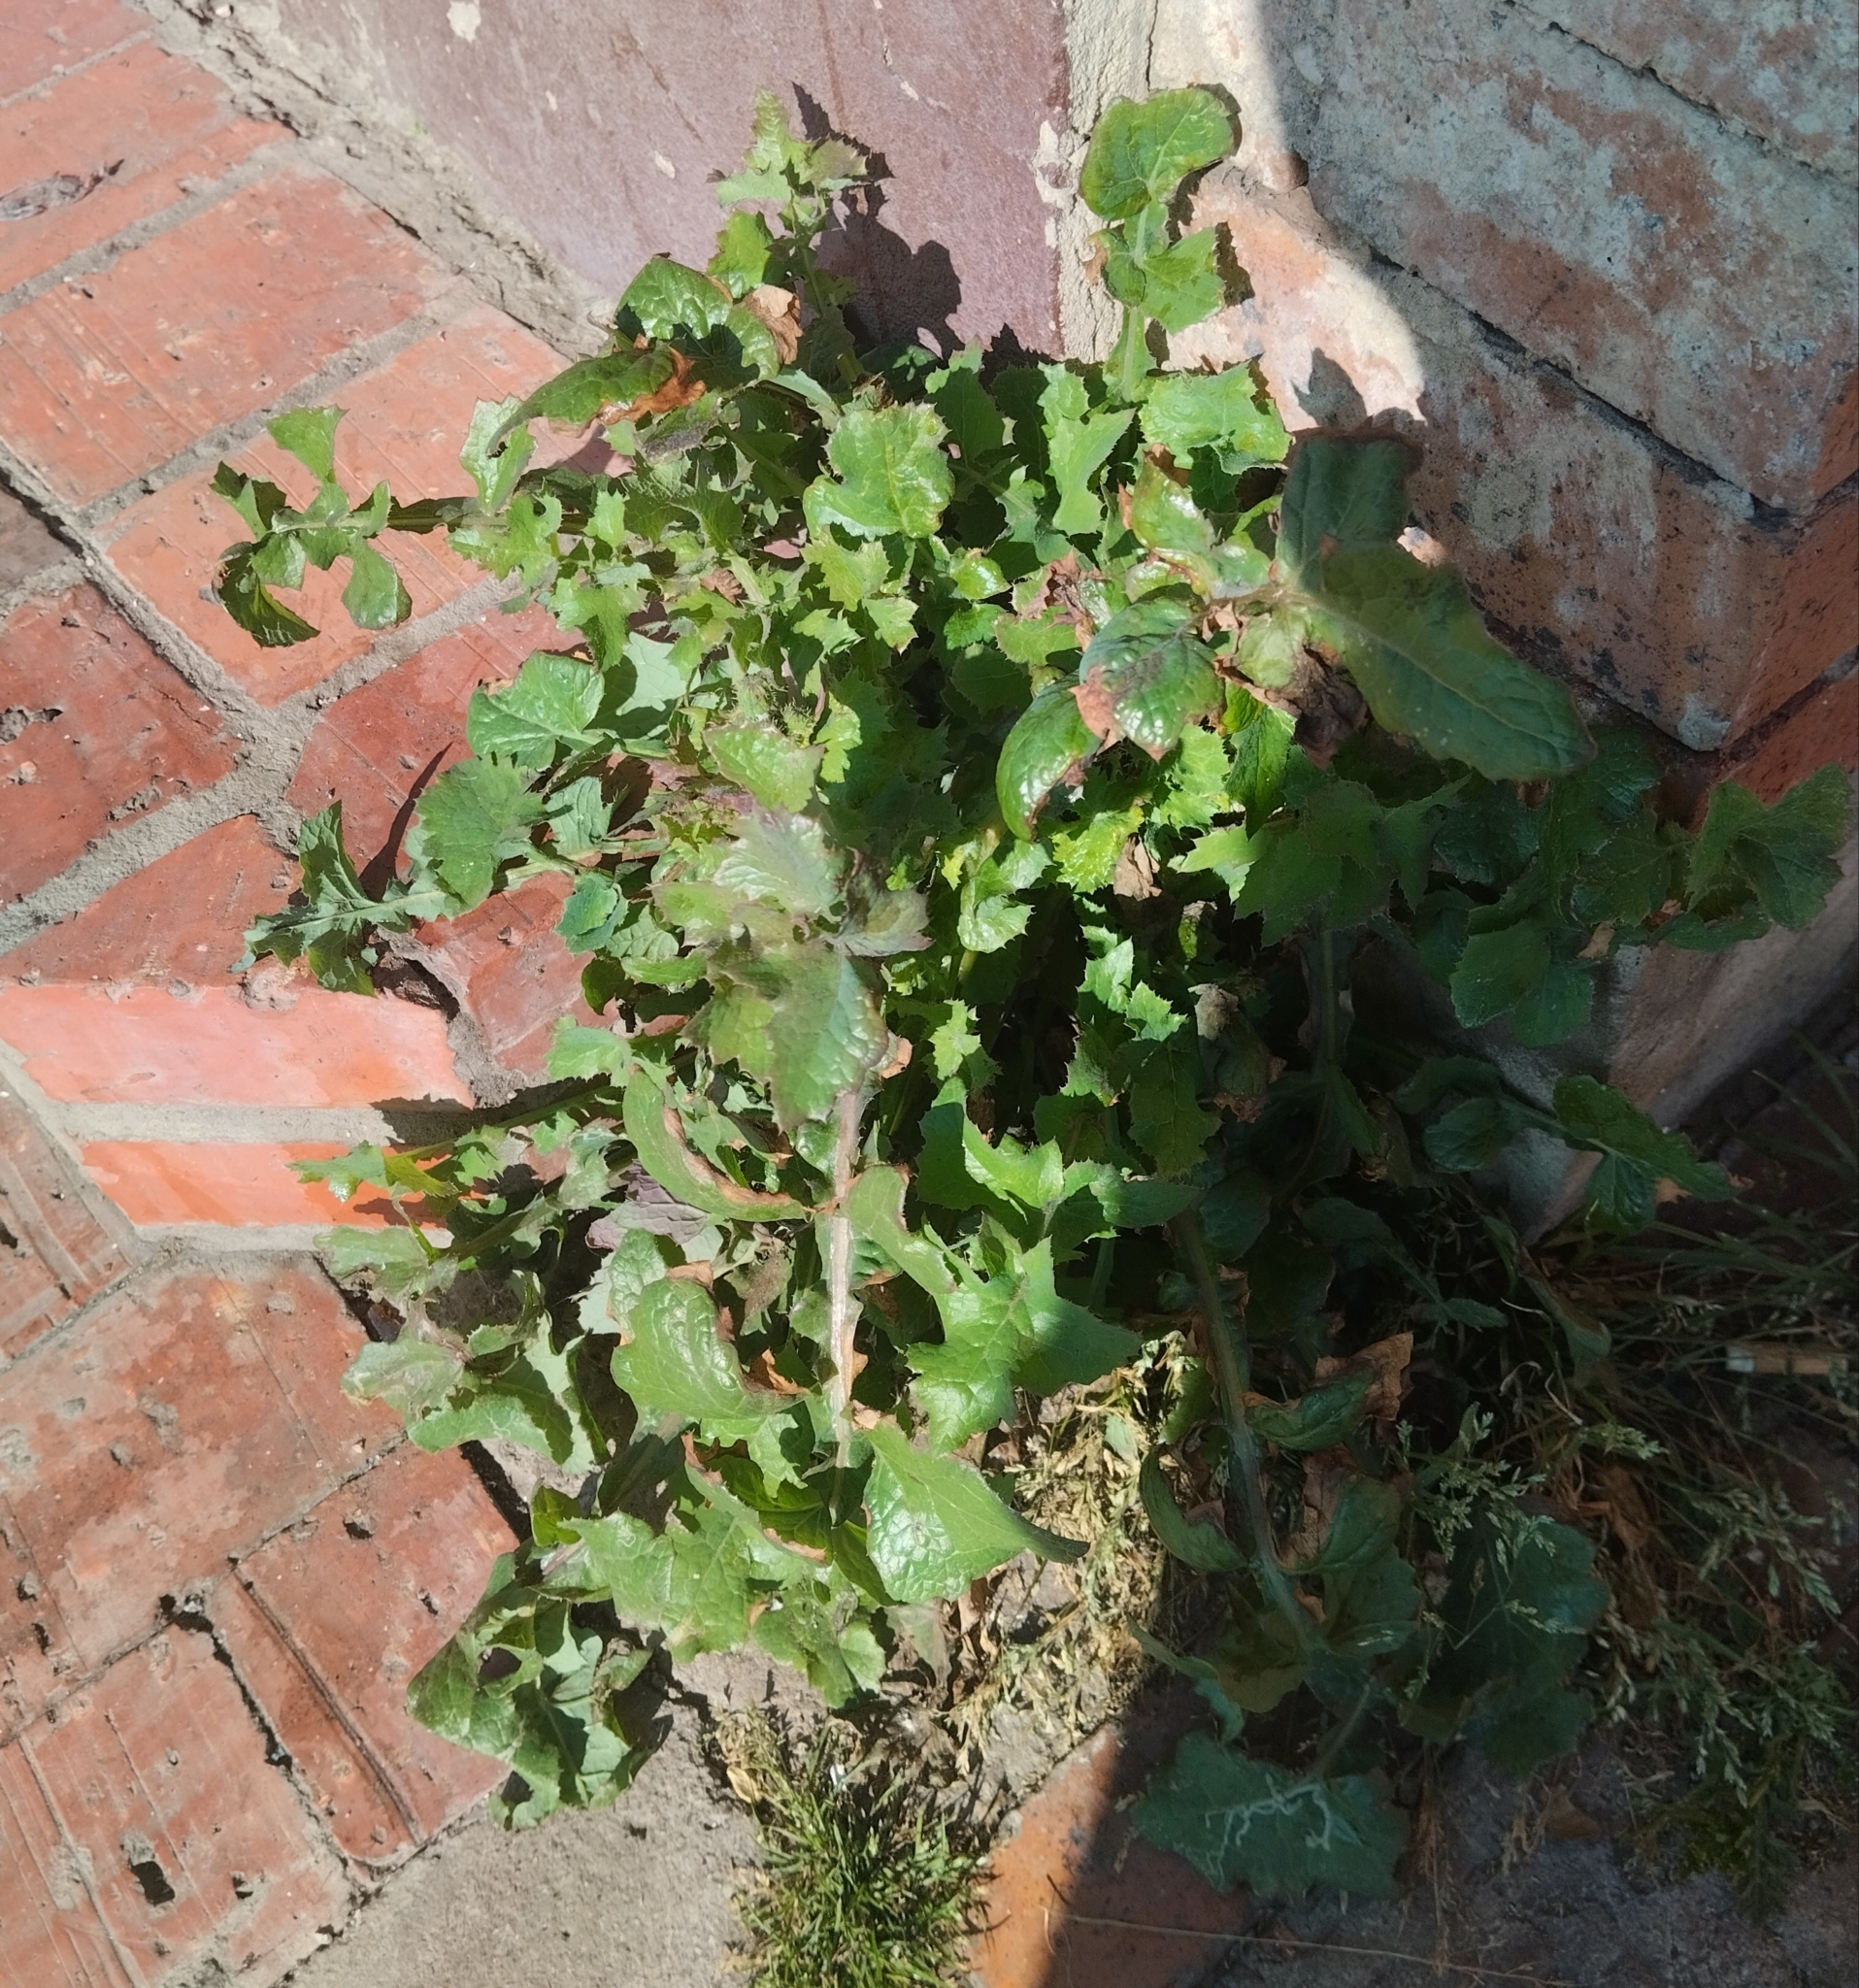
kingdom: Plantae
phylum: Tracheophyta
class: Magnoliopsida
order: Asterales
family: Asteraceae
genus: Sonchus
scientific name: Sonchus oleraceus
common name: Common sowthistle
